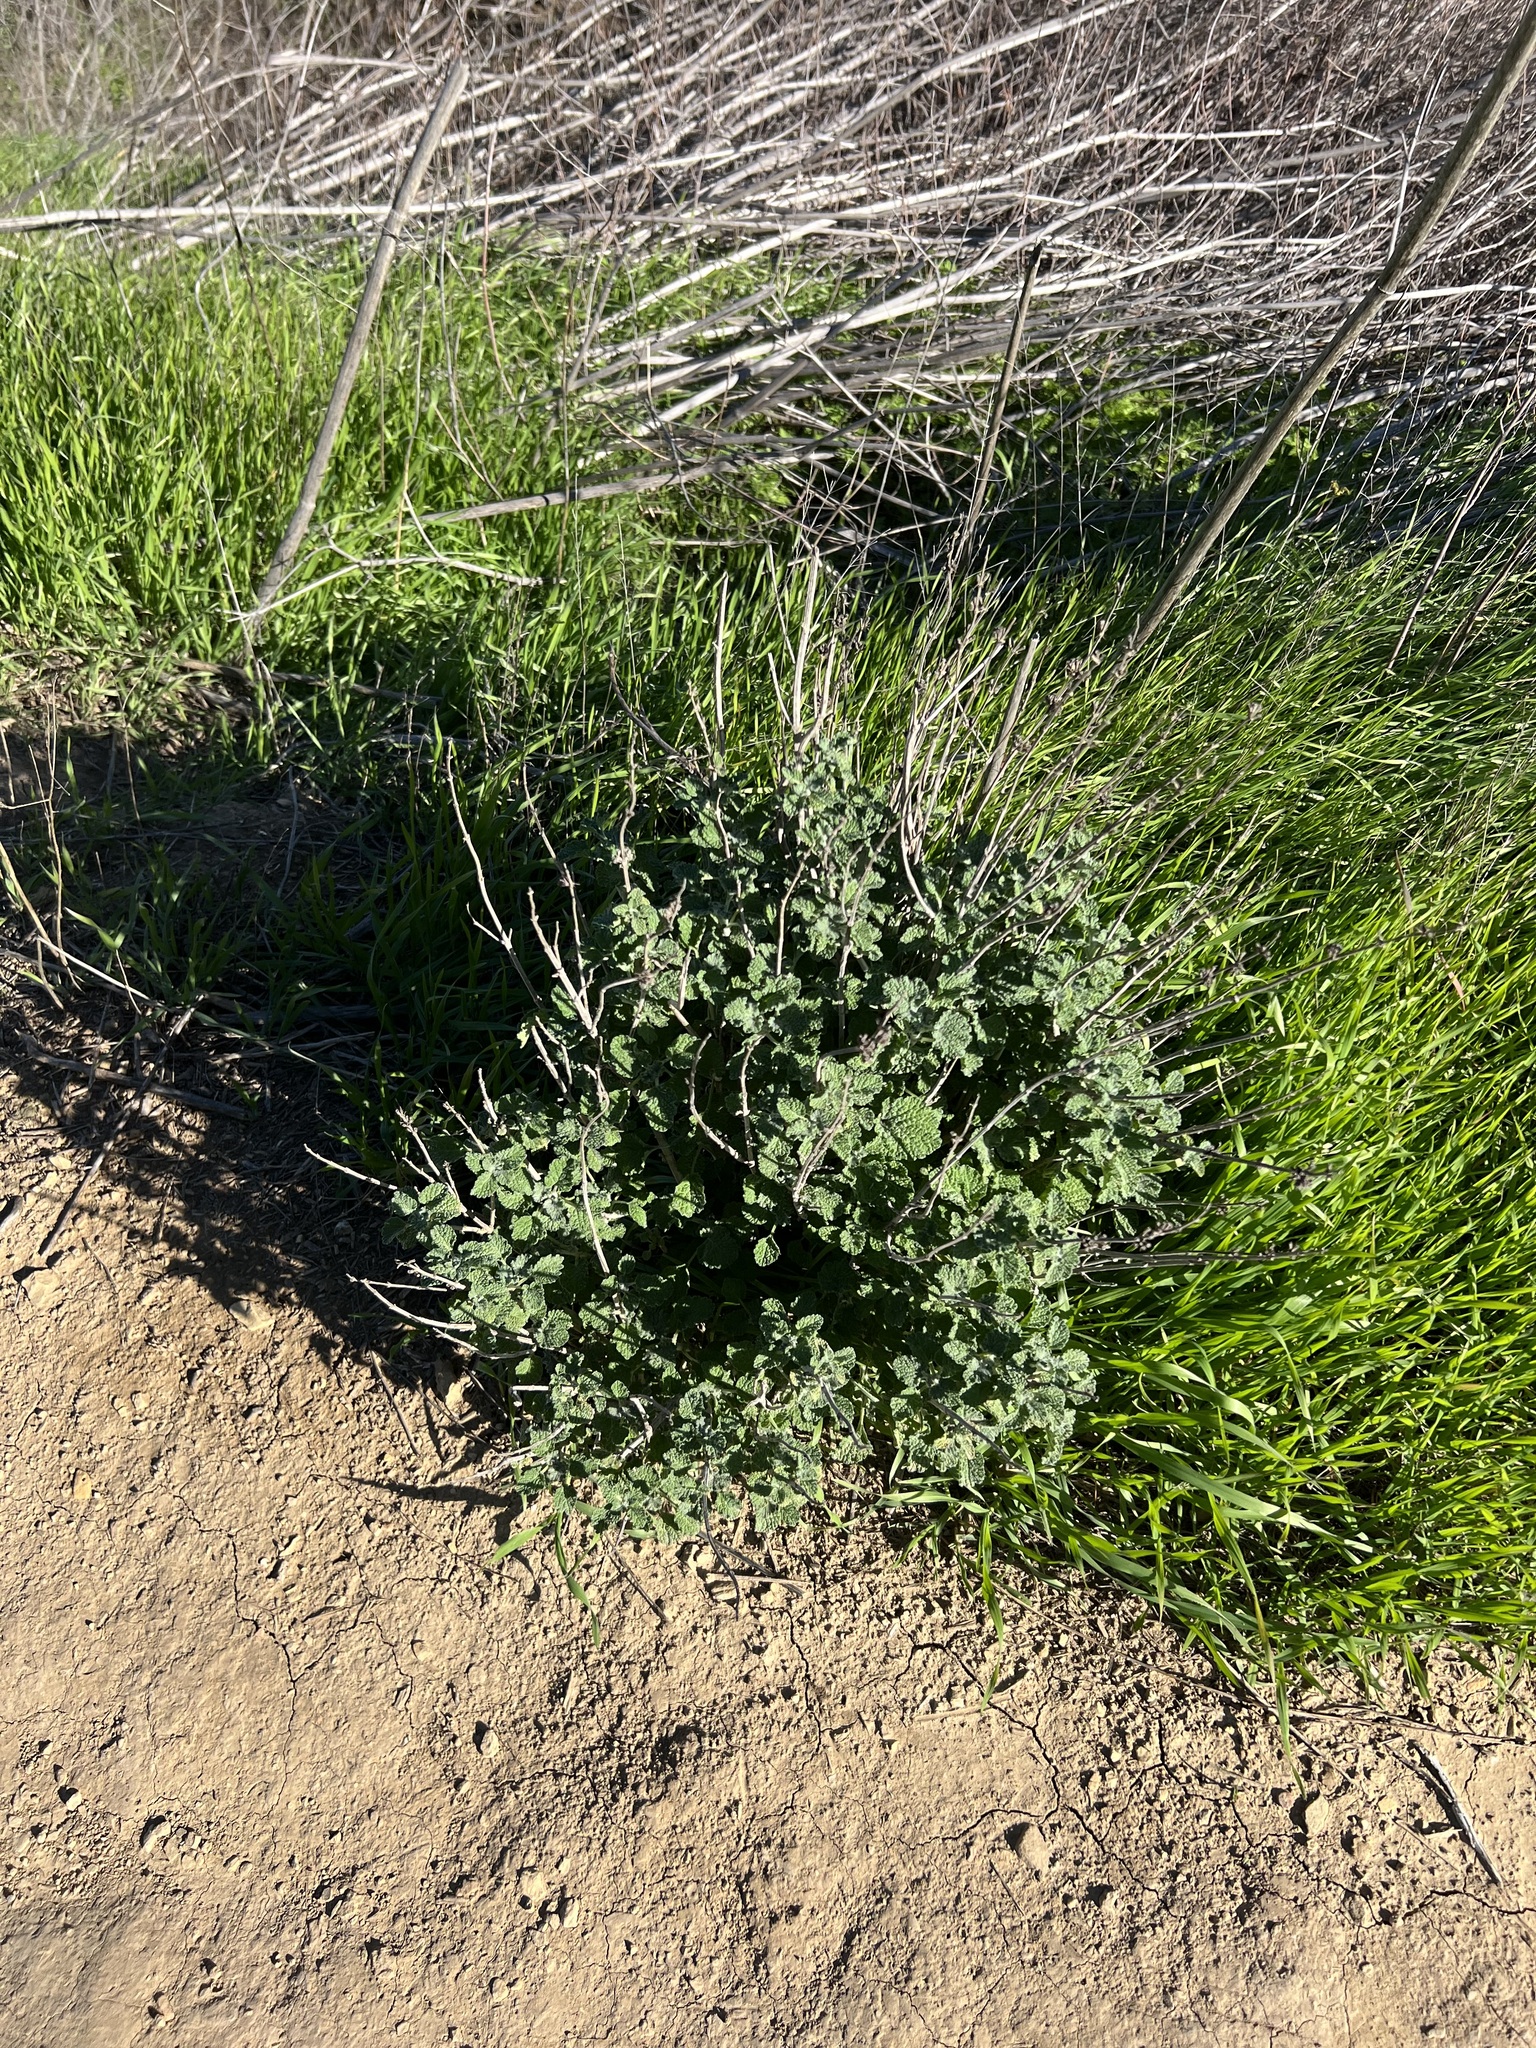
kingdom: Plantae
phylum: Tracheophyta
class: Magnoliopsida
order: Lamiales
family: Lamiaceae
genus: Marrubium
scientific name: Marrubium vulgare
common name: Horehound
